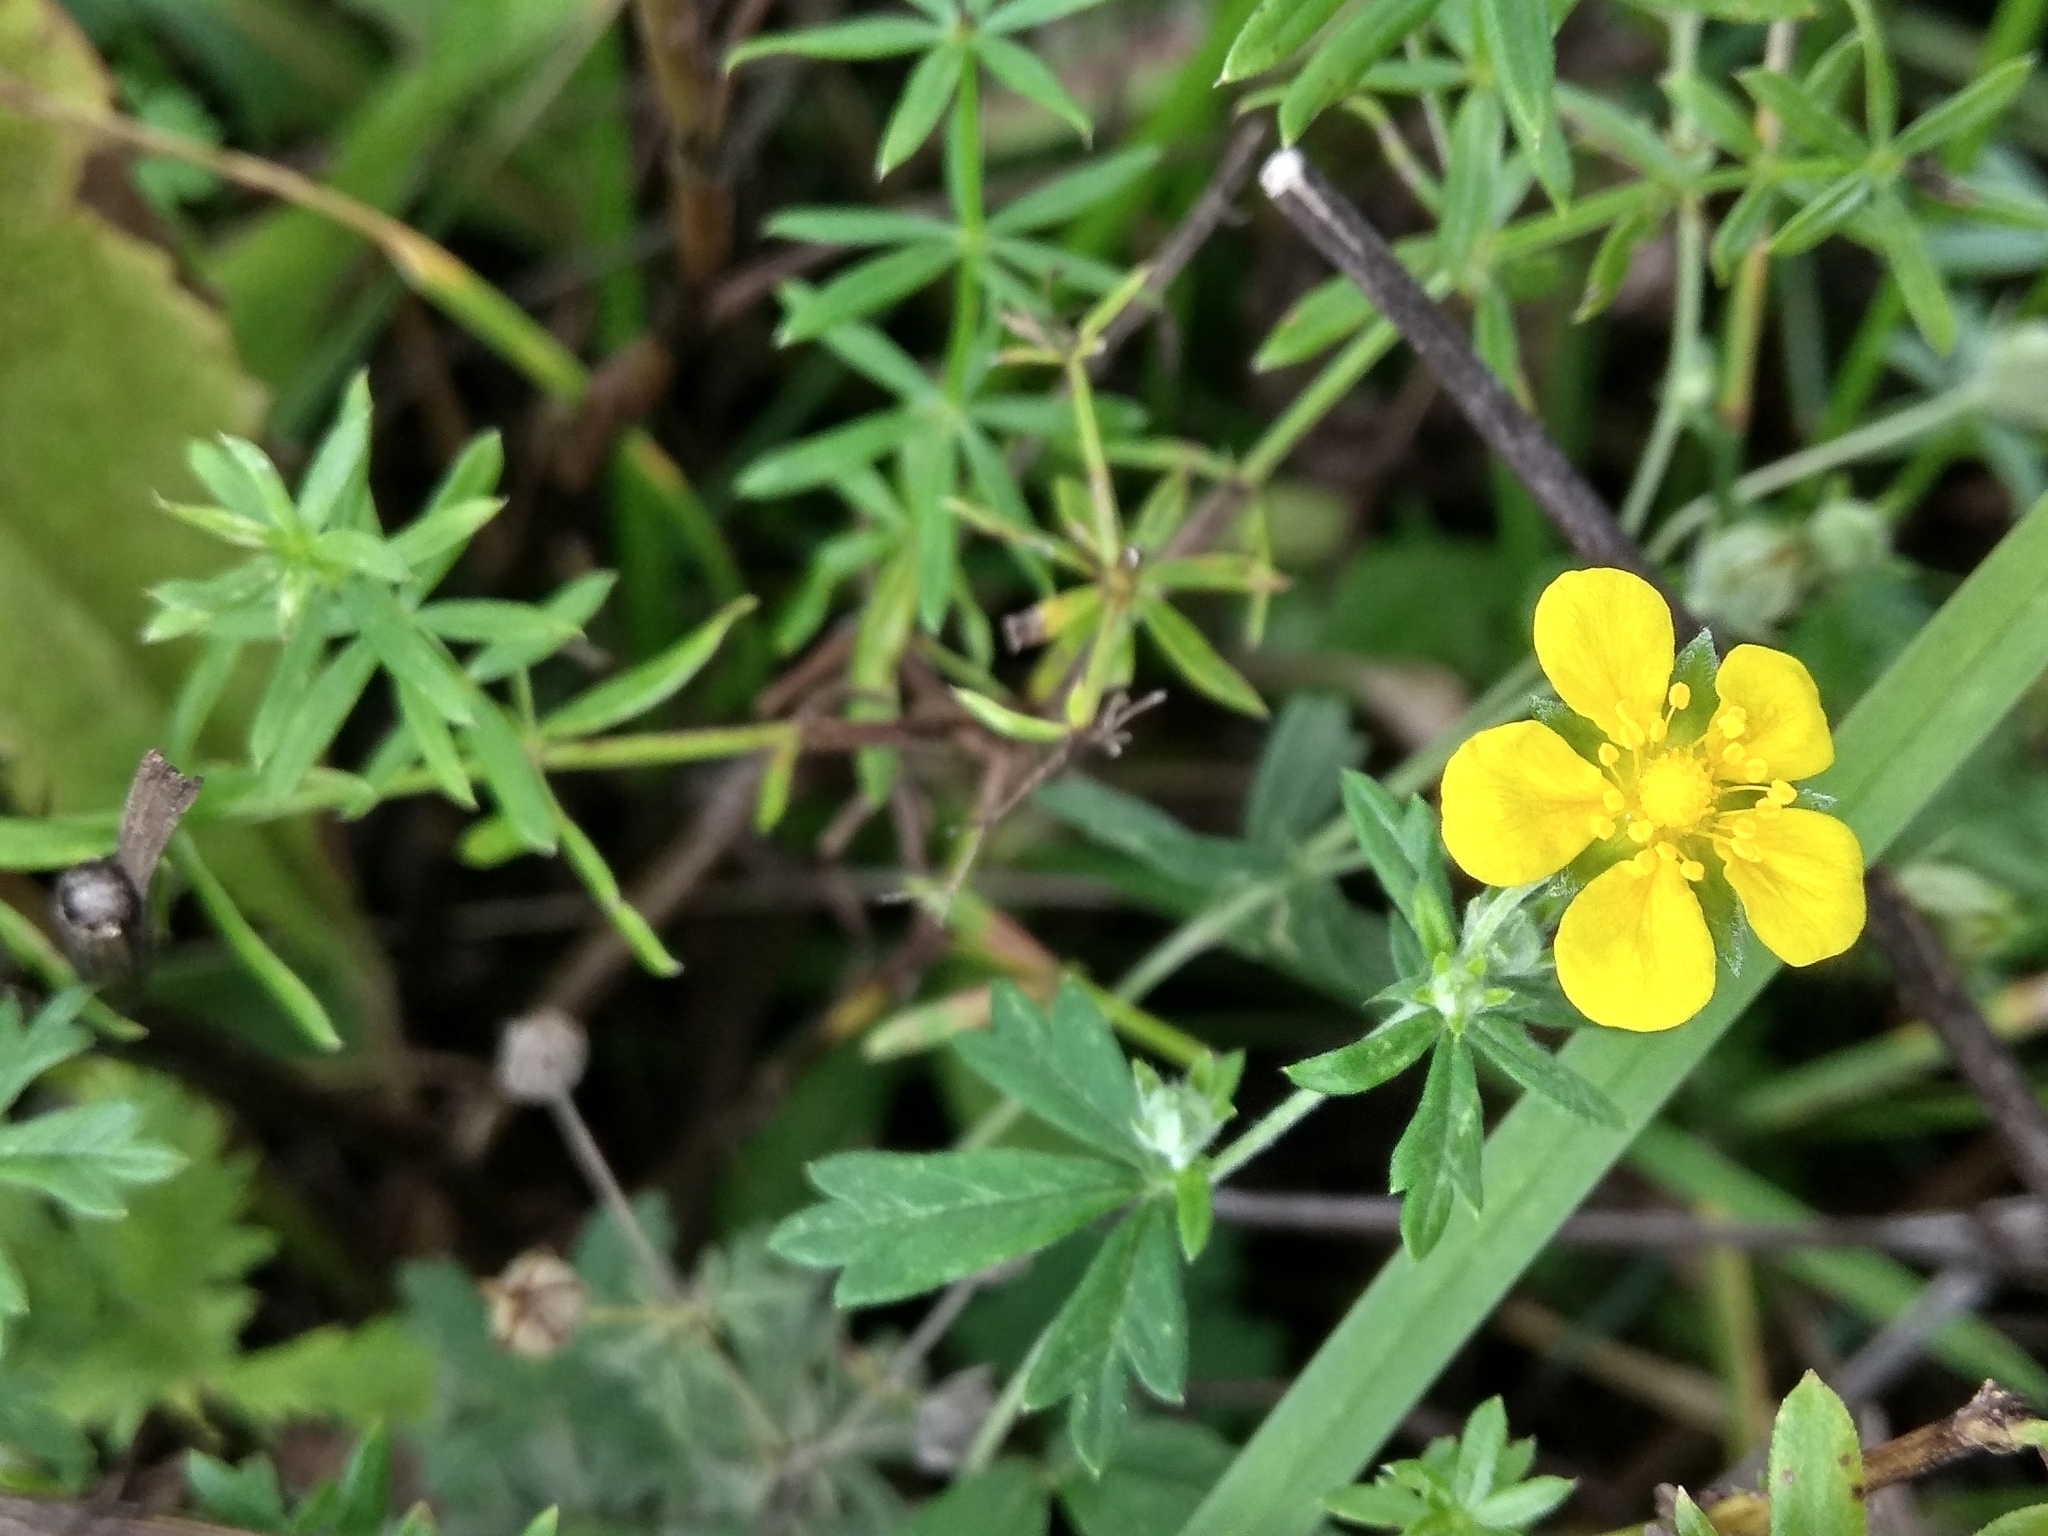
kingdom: Plantae
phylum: Tracheophyta
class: Magnoliopsida
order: Rosales
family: Rosaceae
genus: Potentilla
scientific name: Potentilla argentea
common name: Hoary cinquefoil
